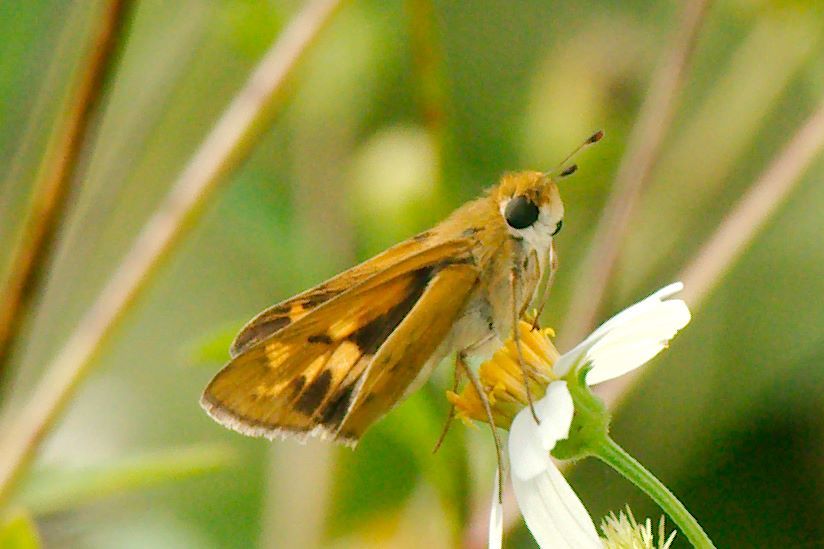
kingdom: Animalia
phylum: Arthropoda
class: Insecta
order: Lepidoptera
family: Hesperiidae
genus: Hylephila
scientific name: Hylephila phyleus
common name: Fiery skipper
